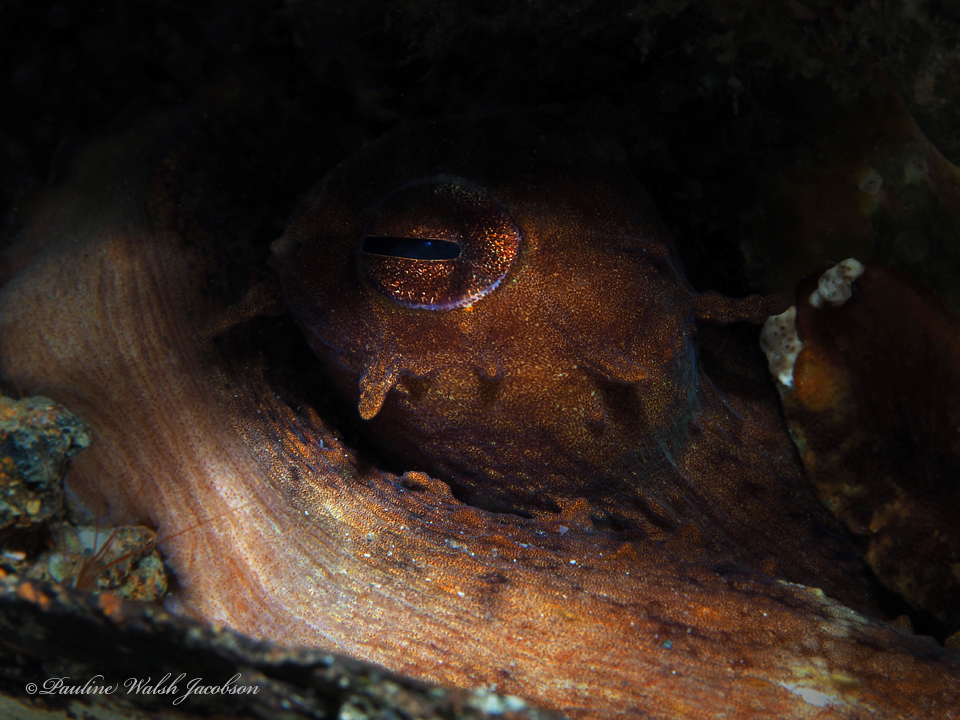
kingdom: Animalia
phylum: Mollusca
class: Cephalopoda
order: Octopoda
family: Octopodidae
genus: Octopus
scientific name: Octopus americanus
